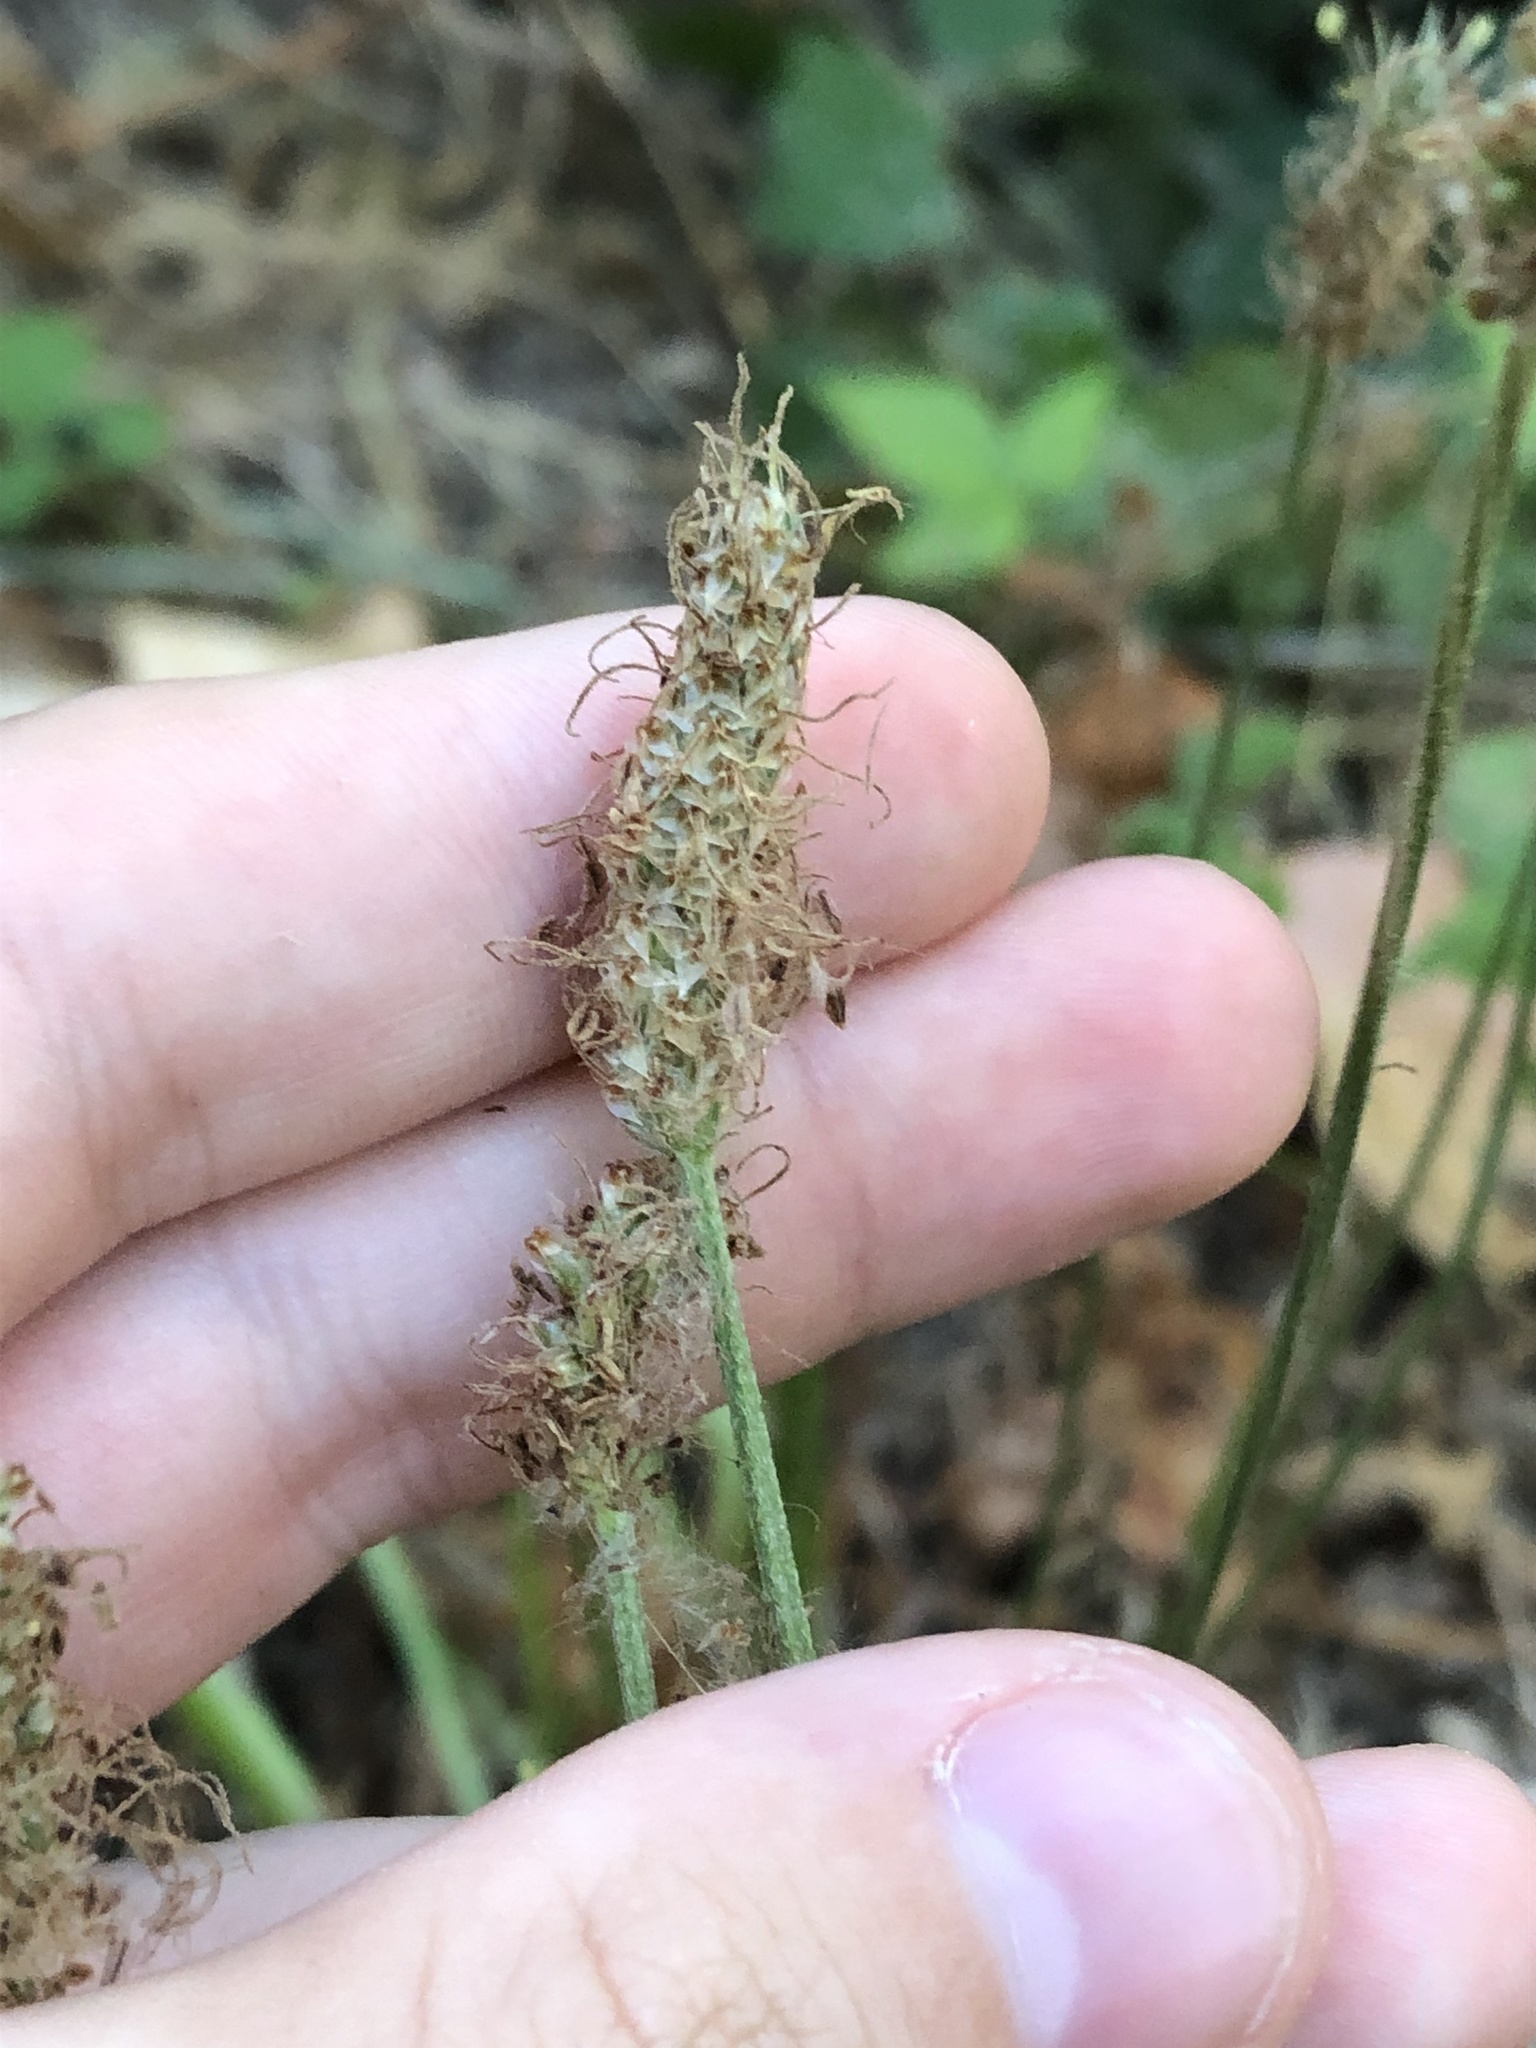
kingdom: Plantae
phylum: Tracheophyta
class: Magnoliopsida
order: Lamiales
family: Plantaginaceae
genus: Plantago
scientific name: Plantago lanceolata
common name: Ribwort plantain
